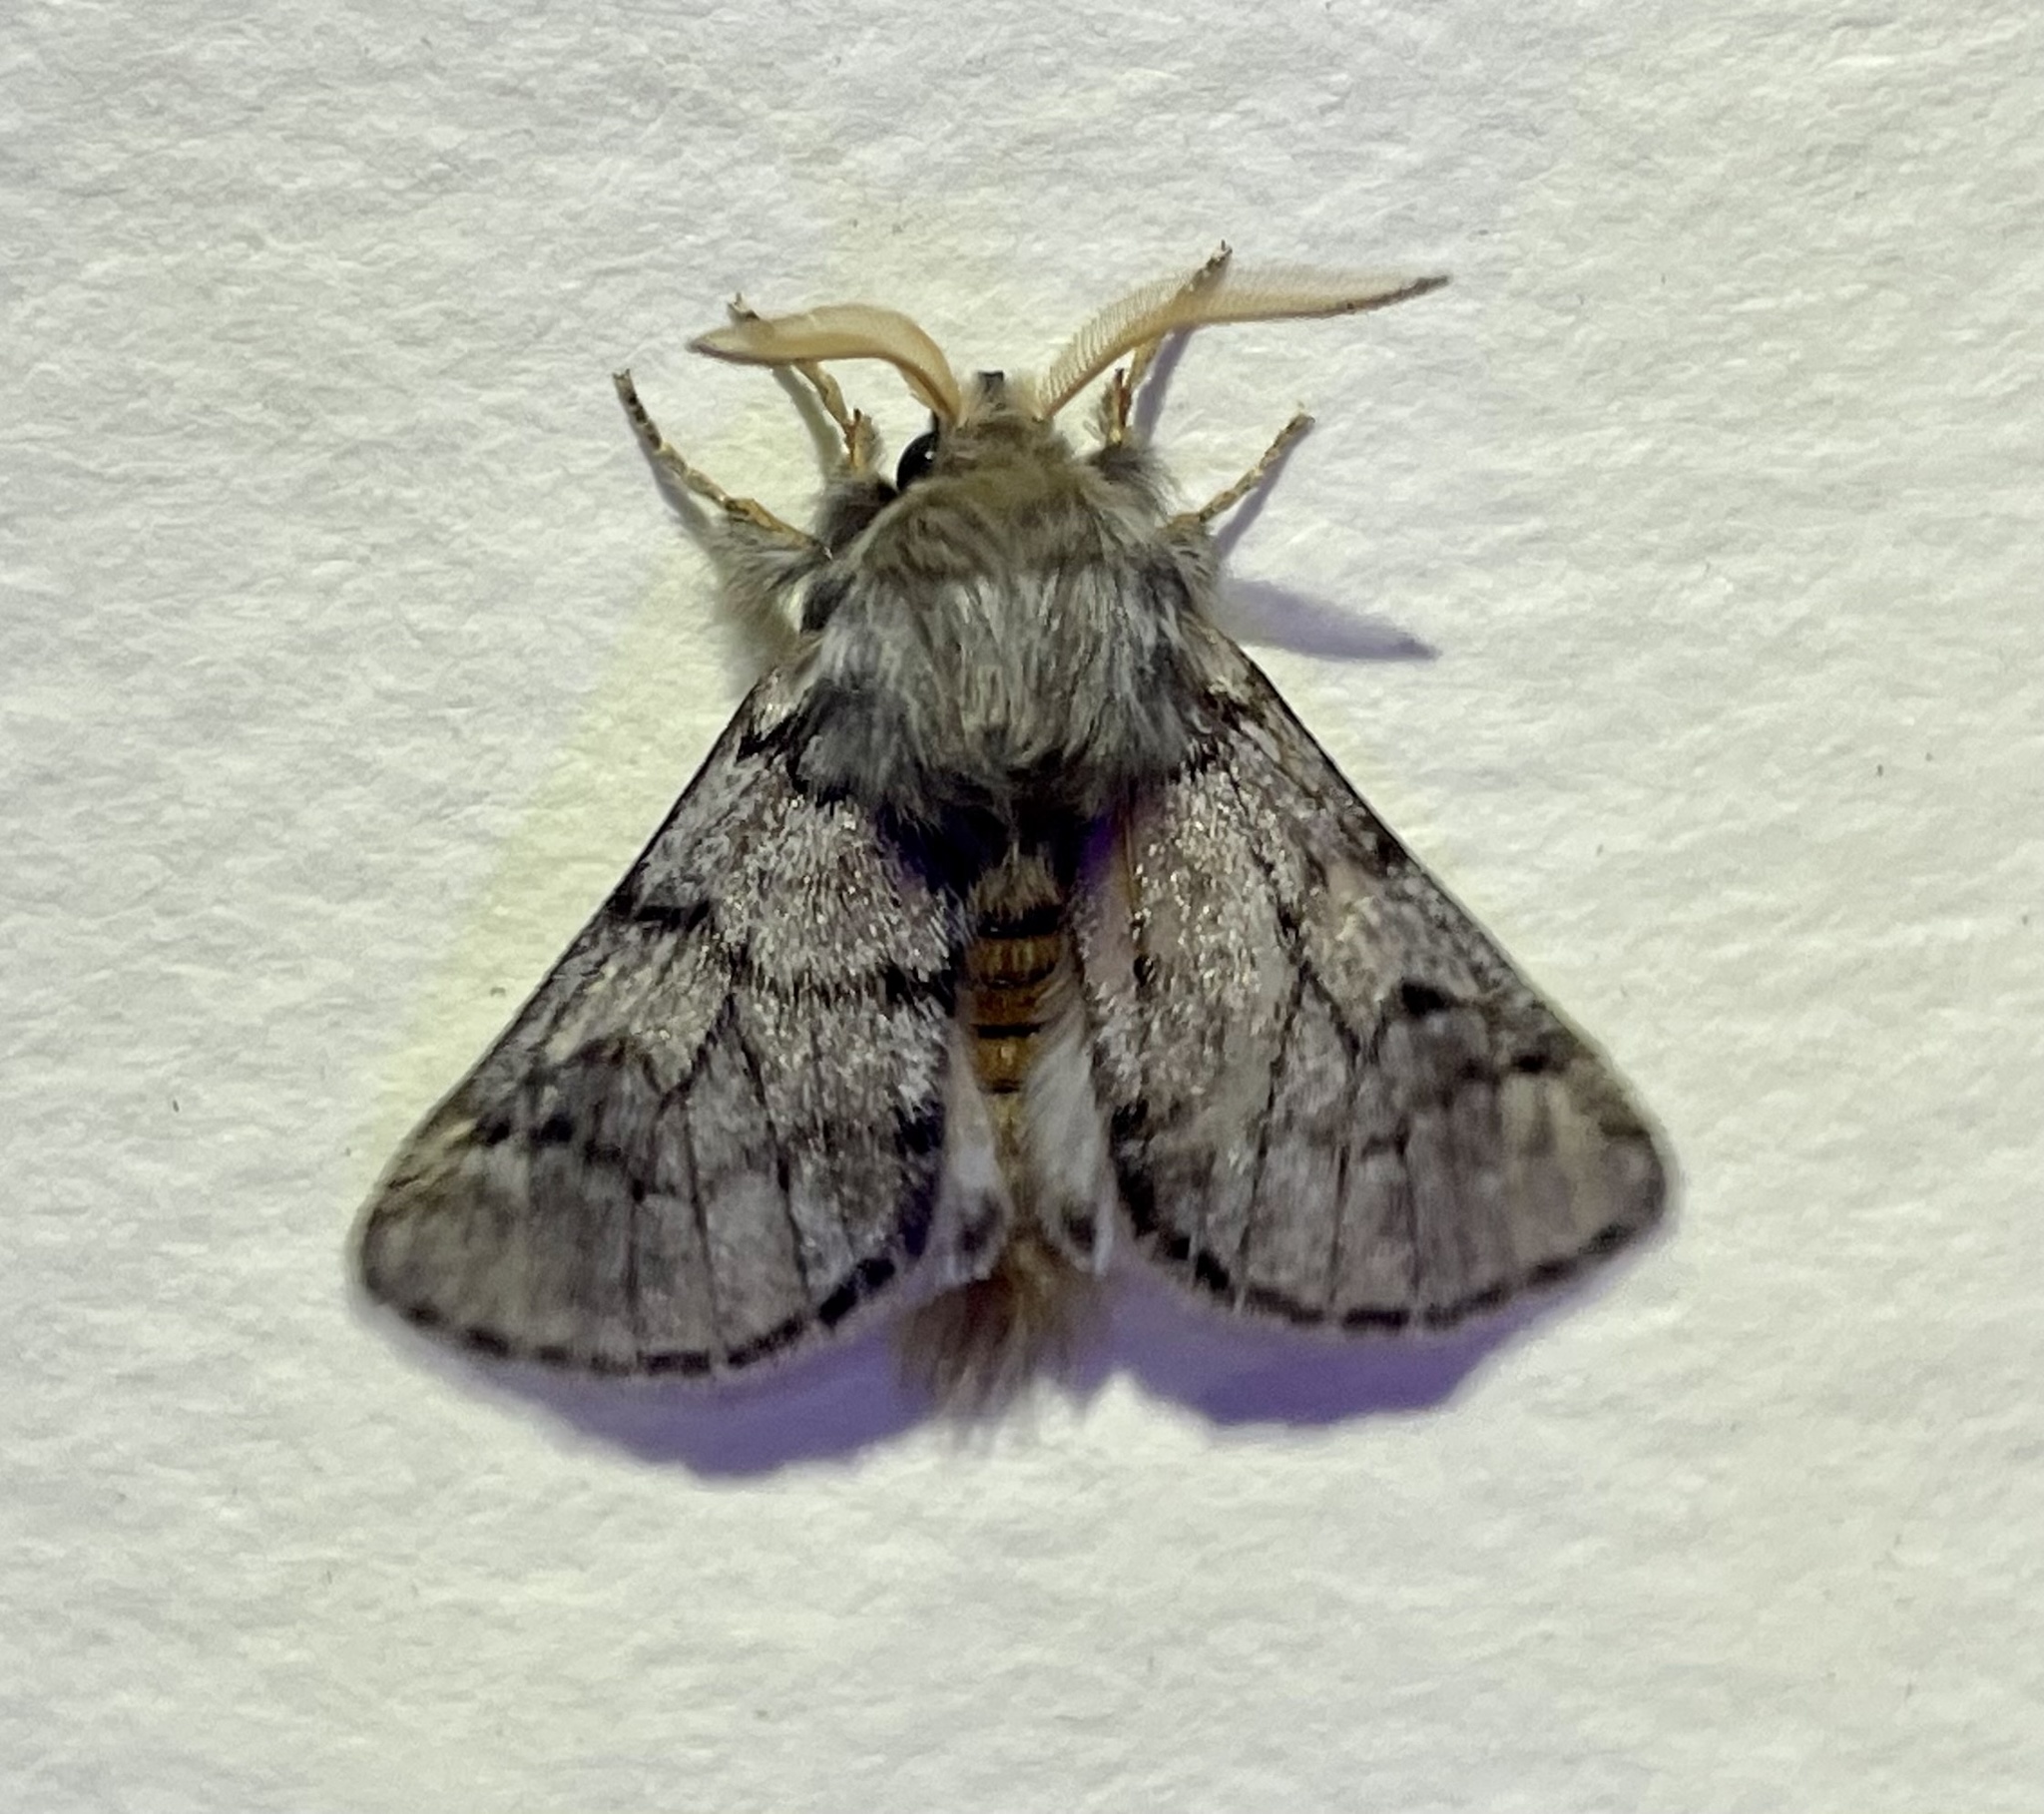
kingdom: Animalia
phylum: Arthropoda
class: Insecta
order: Lepidoptera
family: Notodontidae
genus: Thaumetopoea
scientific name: Thaumetopoea pityocampa
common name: Pine processionary
